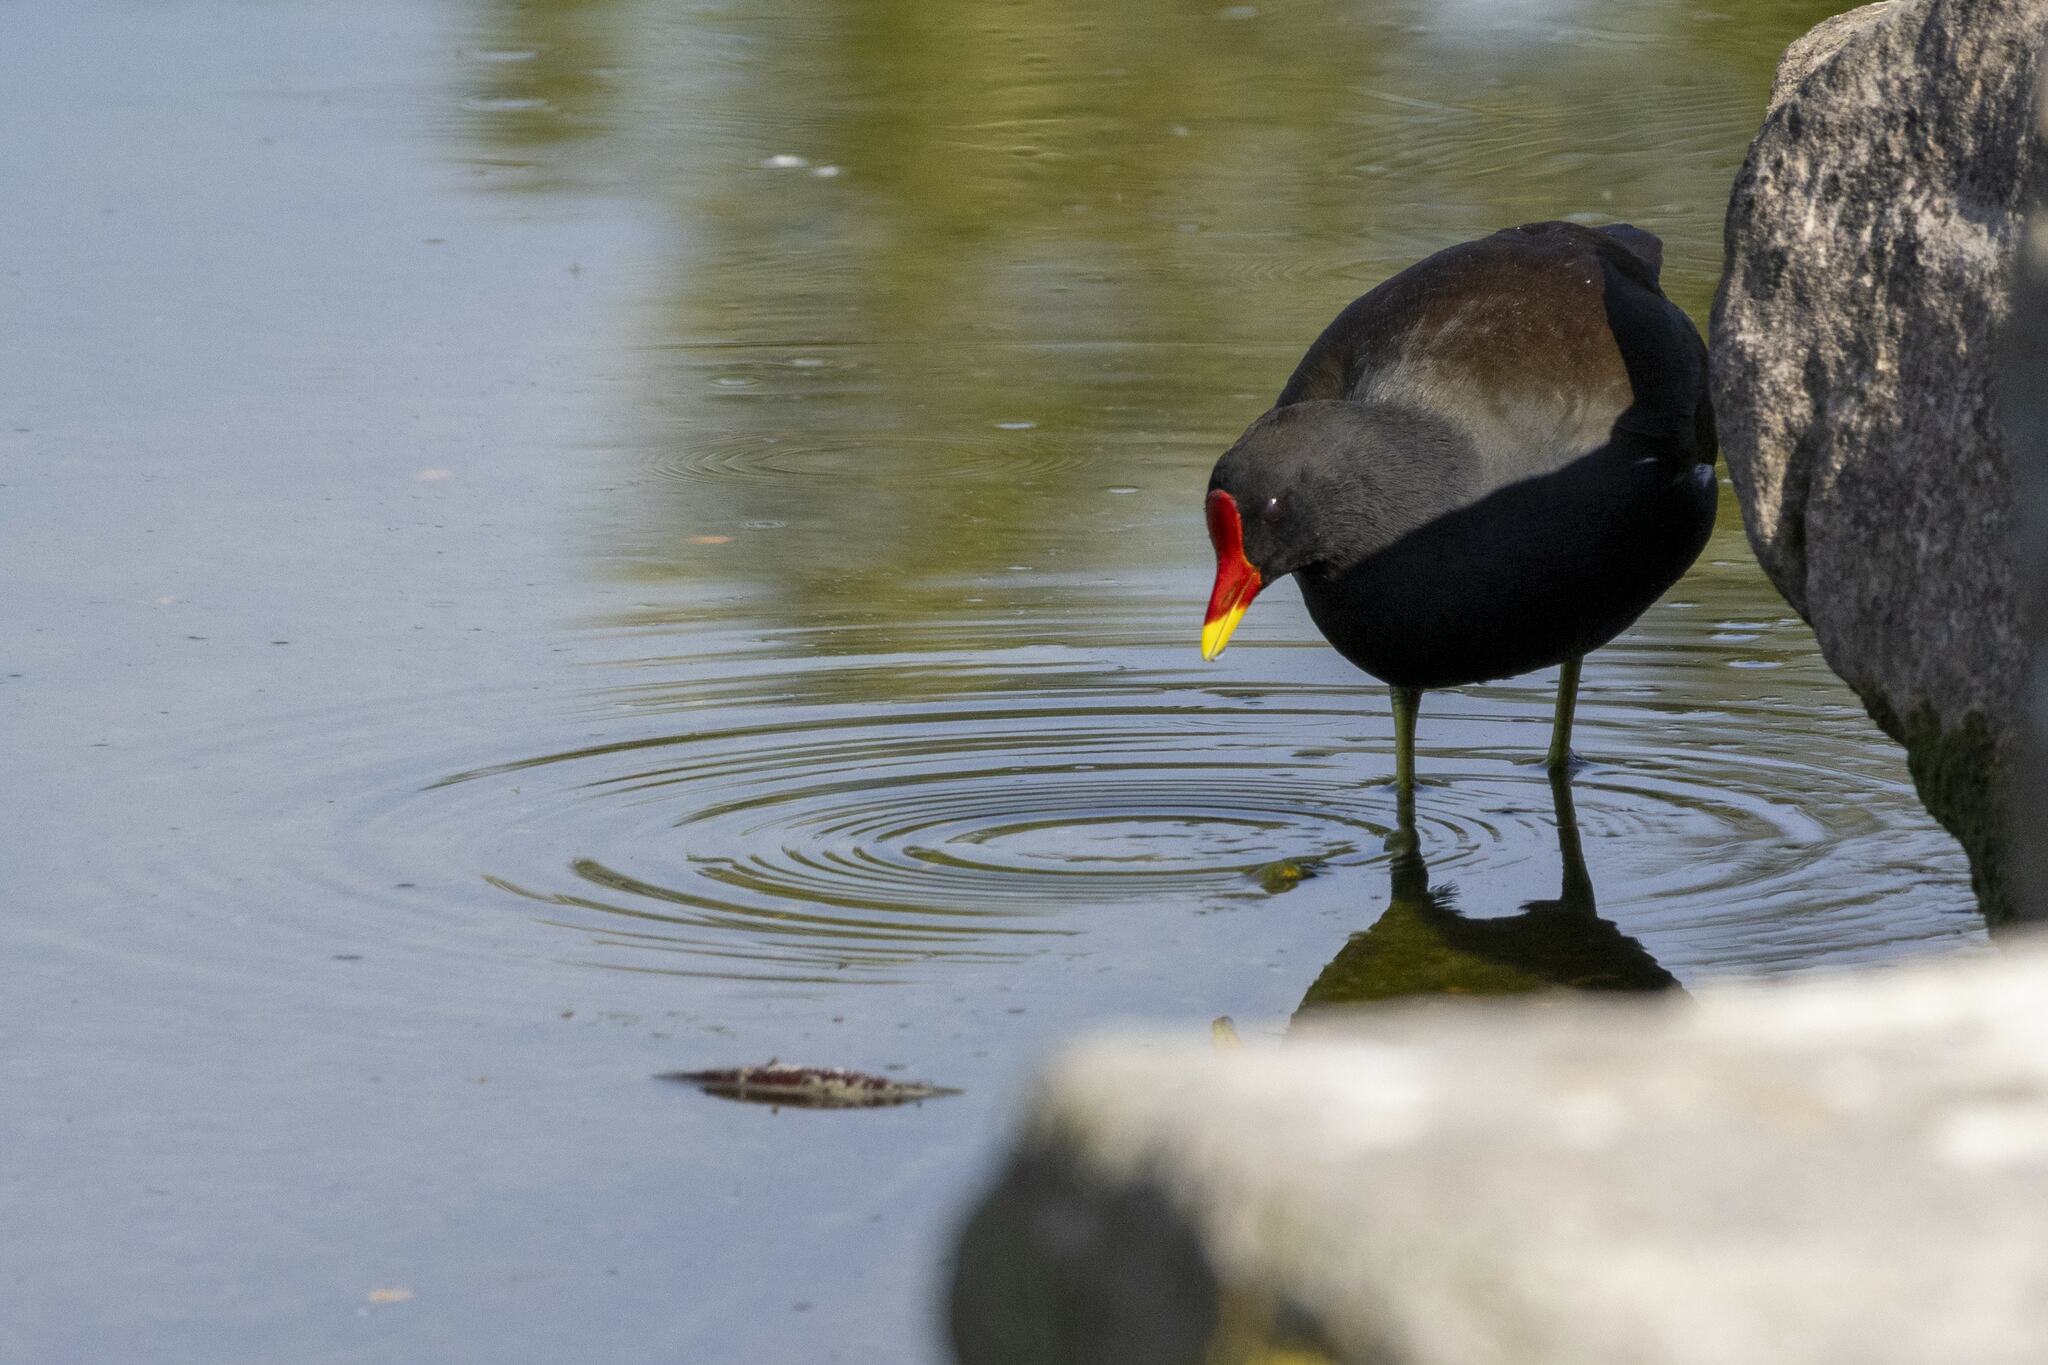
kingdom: Animalia
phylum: Chordata
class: Aves
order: Gruiformes
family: Rallidae
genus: Gallinula
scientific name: Gallinula chloropus
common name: Common moorhen
